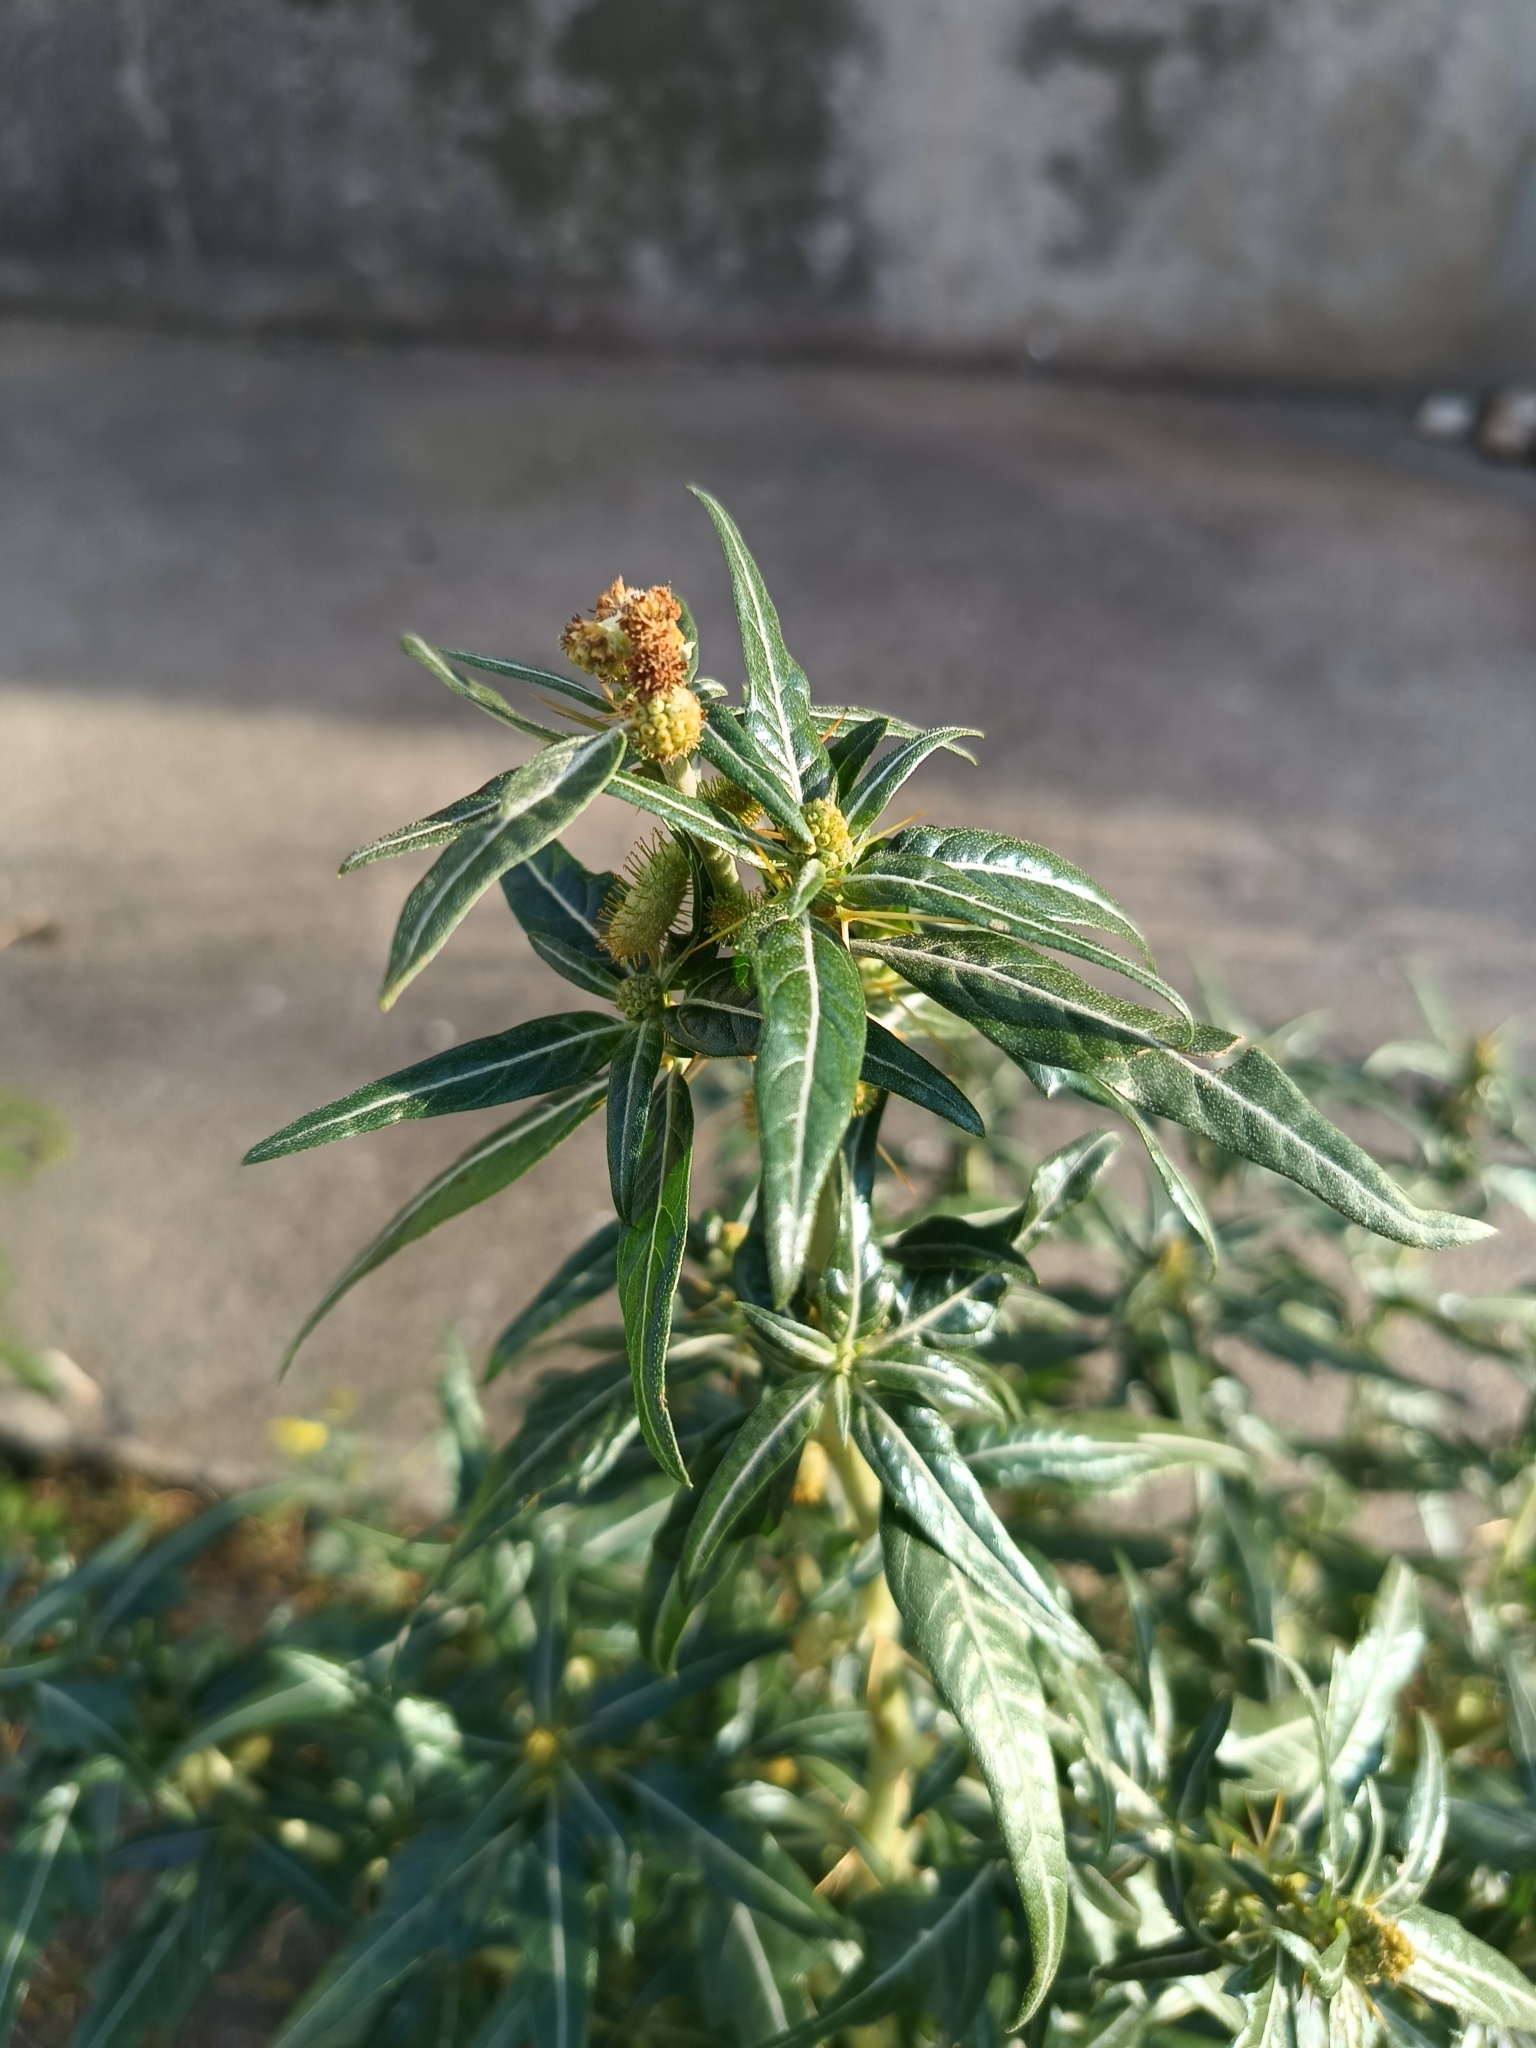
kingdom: Plantae
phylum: Tracheophyta
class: Magnoliopsida
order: Asterales
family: Asteraceae
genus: Xanthium
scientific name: Xanthium spinosum
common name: Spiny cocklebur
